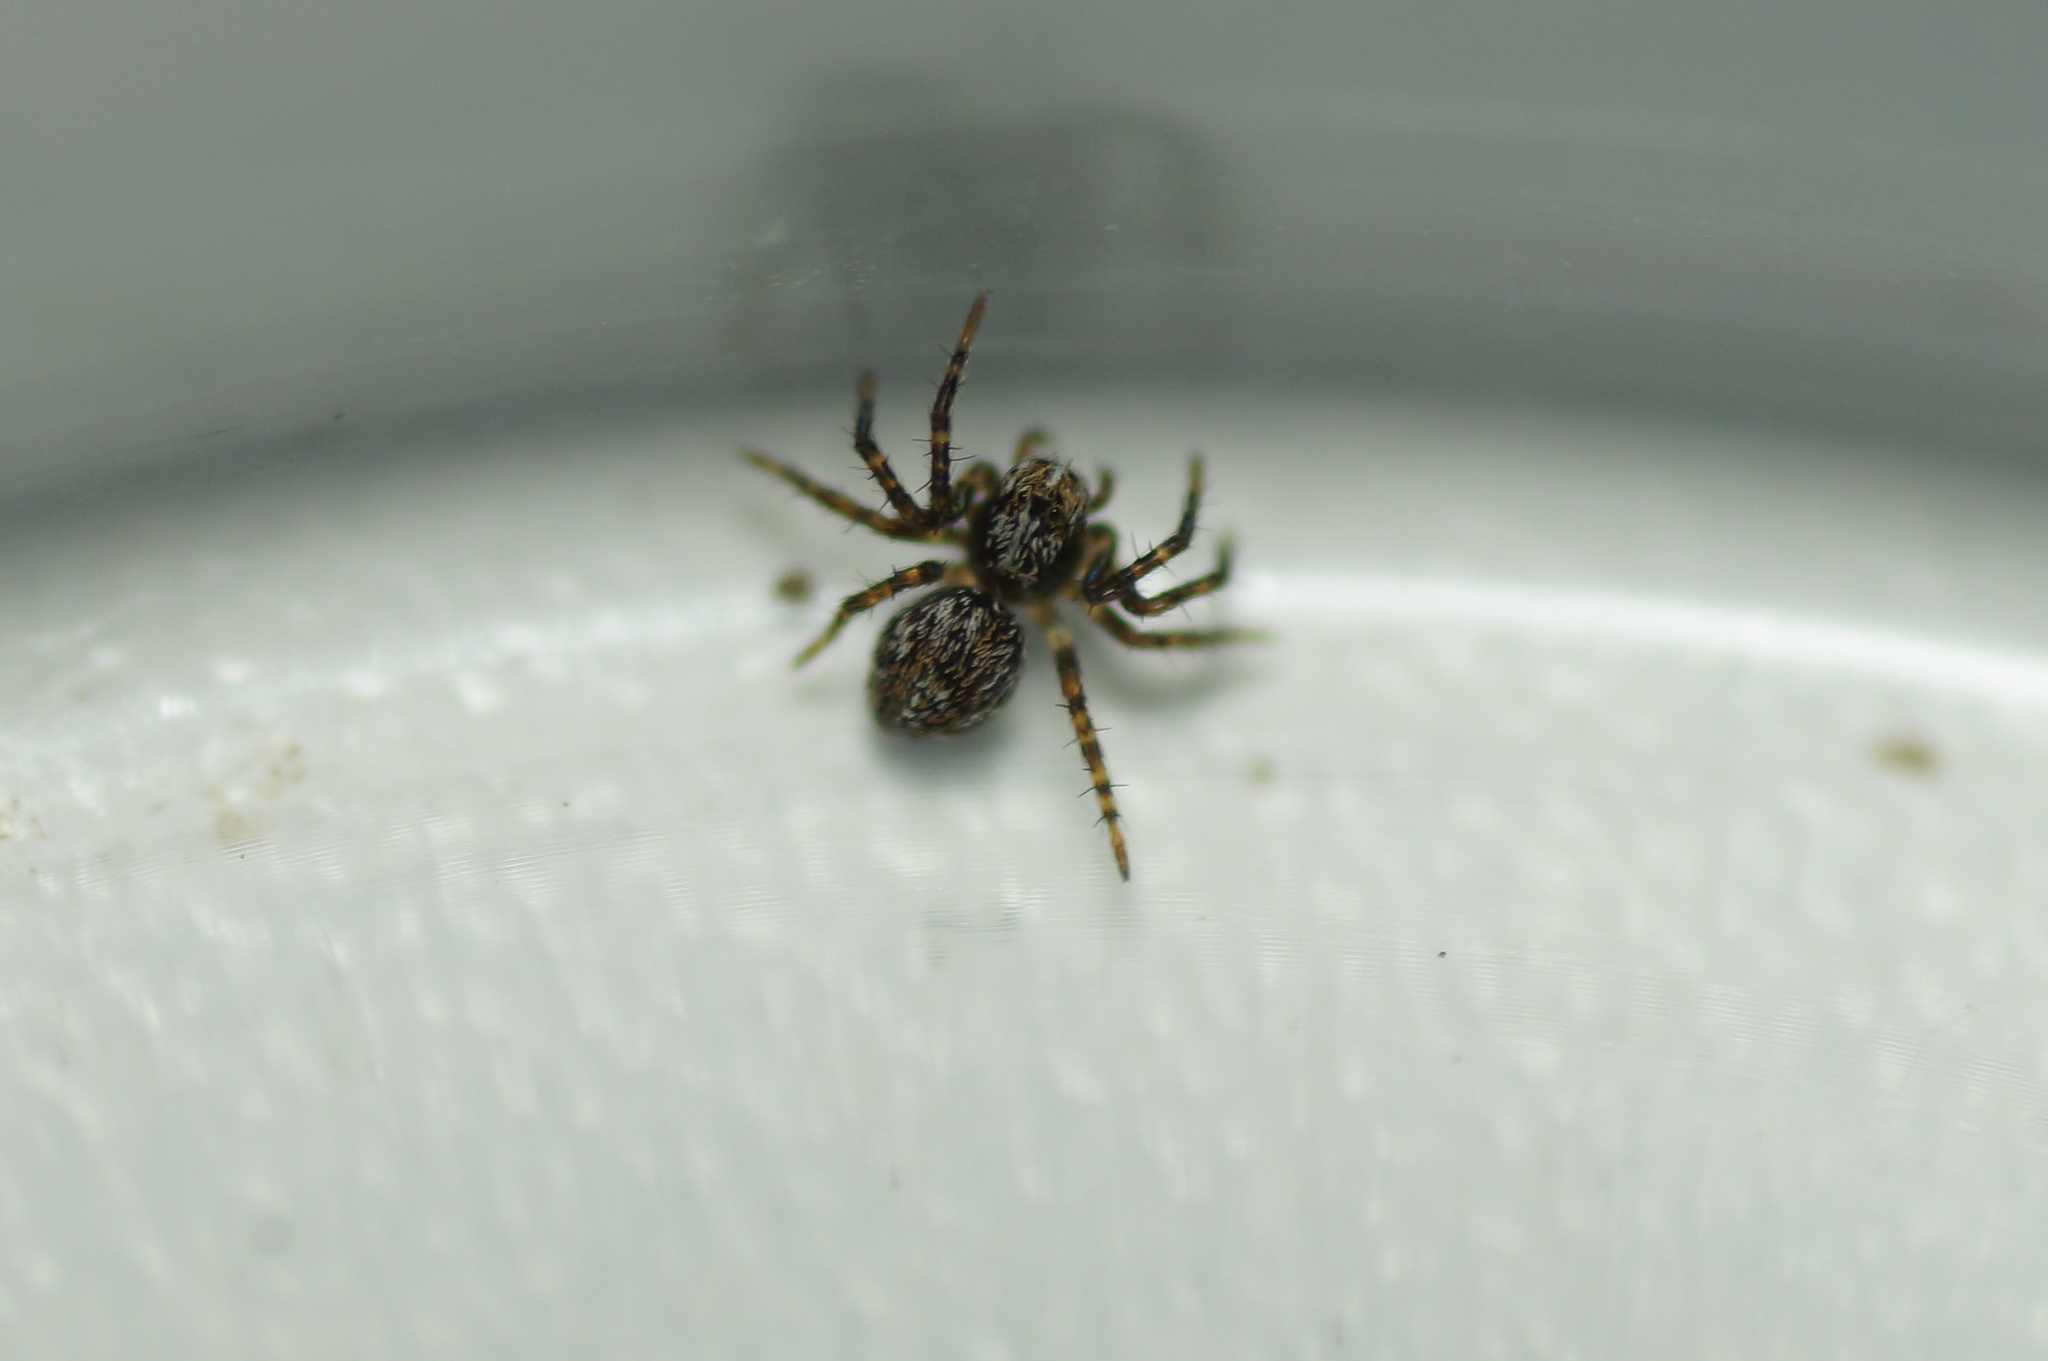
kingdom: Animalia
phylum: Arthropoda
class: Arachnida
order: Araneae
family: Oxyopidae
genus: Oxyopes
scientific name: Oxyopes
